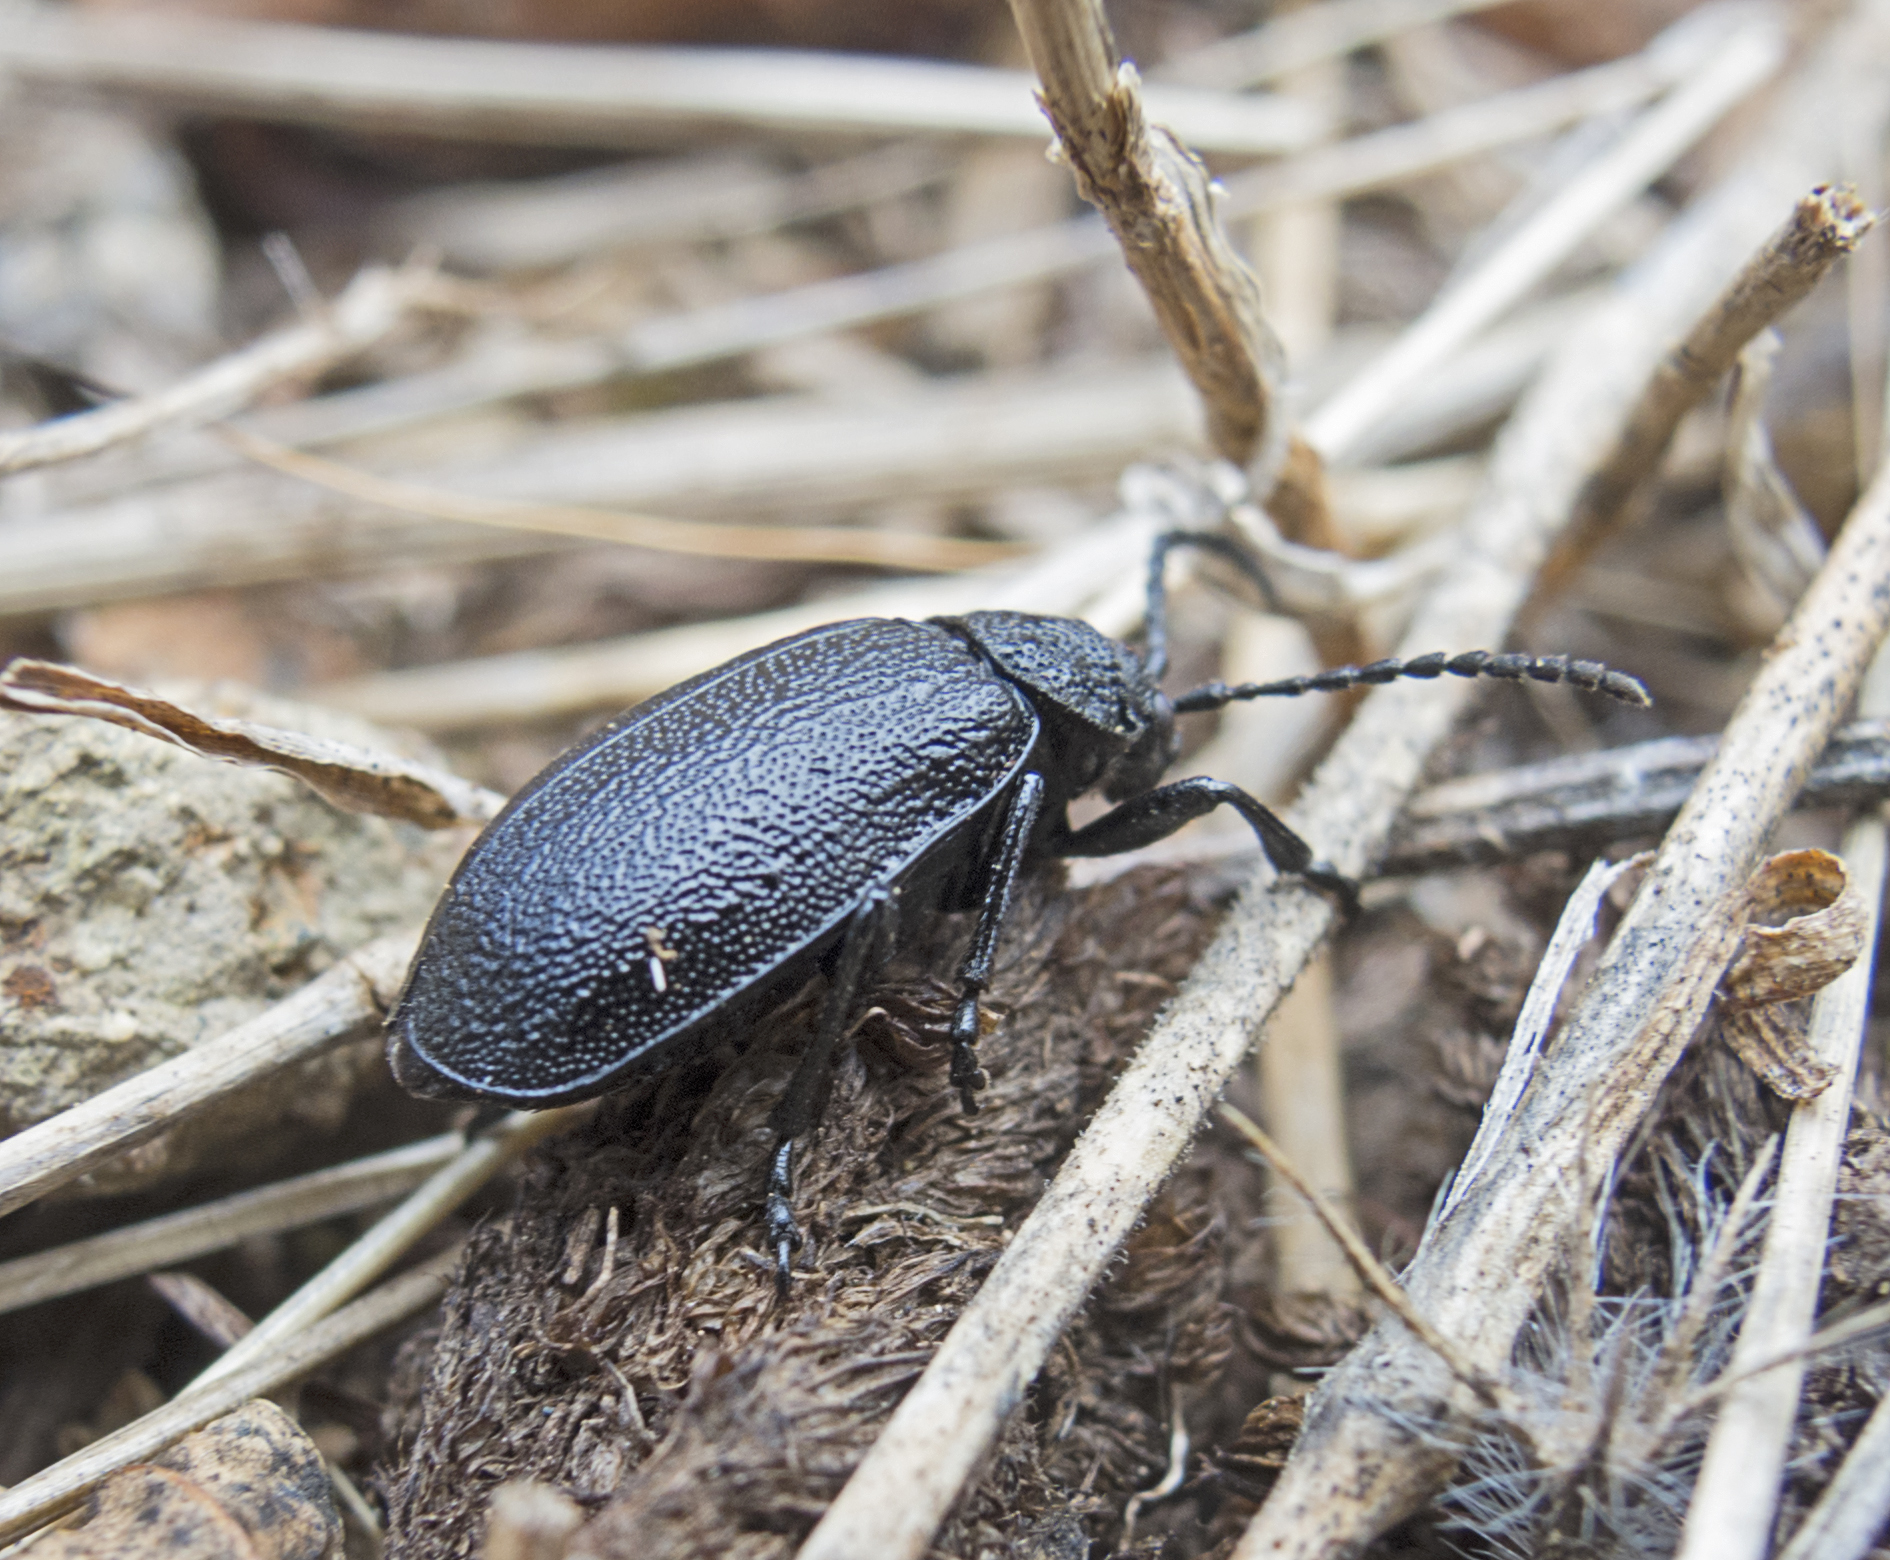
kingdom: Animalia
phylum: Arthropoda
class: Insecta
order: Coleoptera
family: Chrysomelidae
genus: Galeruca
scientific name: Galeruca tanaceti
